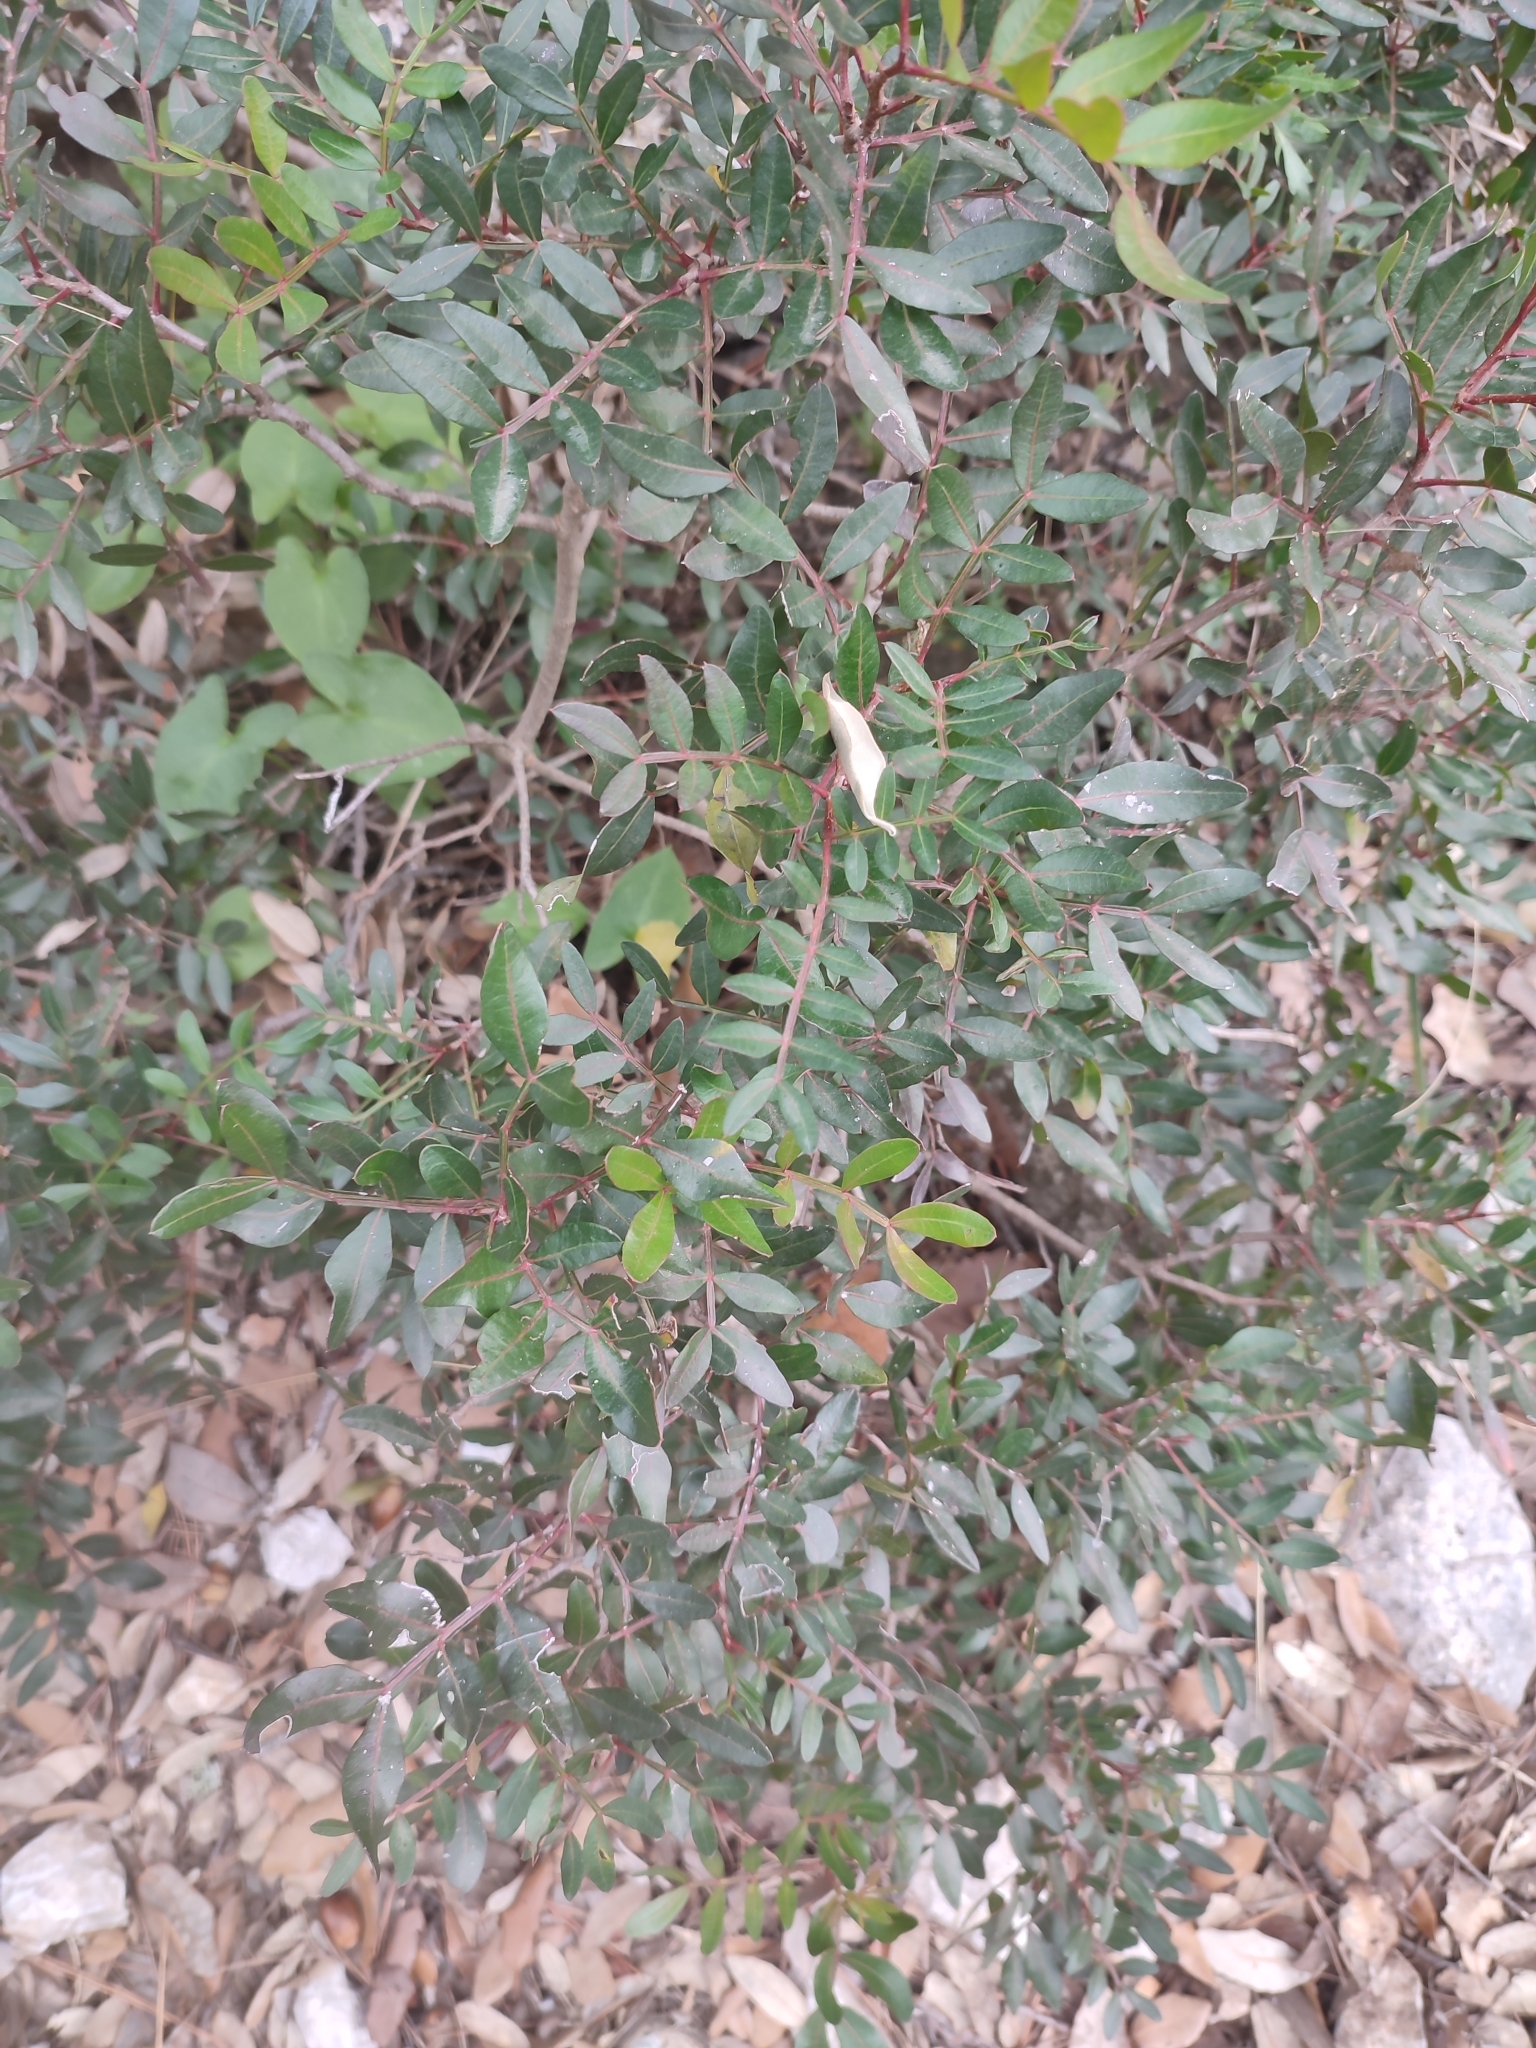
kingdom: Plantae
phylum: Tracheophyta
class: Magnoliopsida
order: Sapindales
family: Anacardiaceae
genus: Pistacia
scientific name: Pistacia lentiscus
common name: Lentisk
